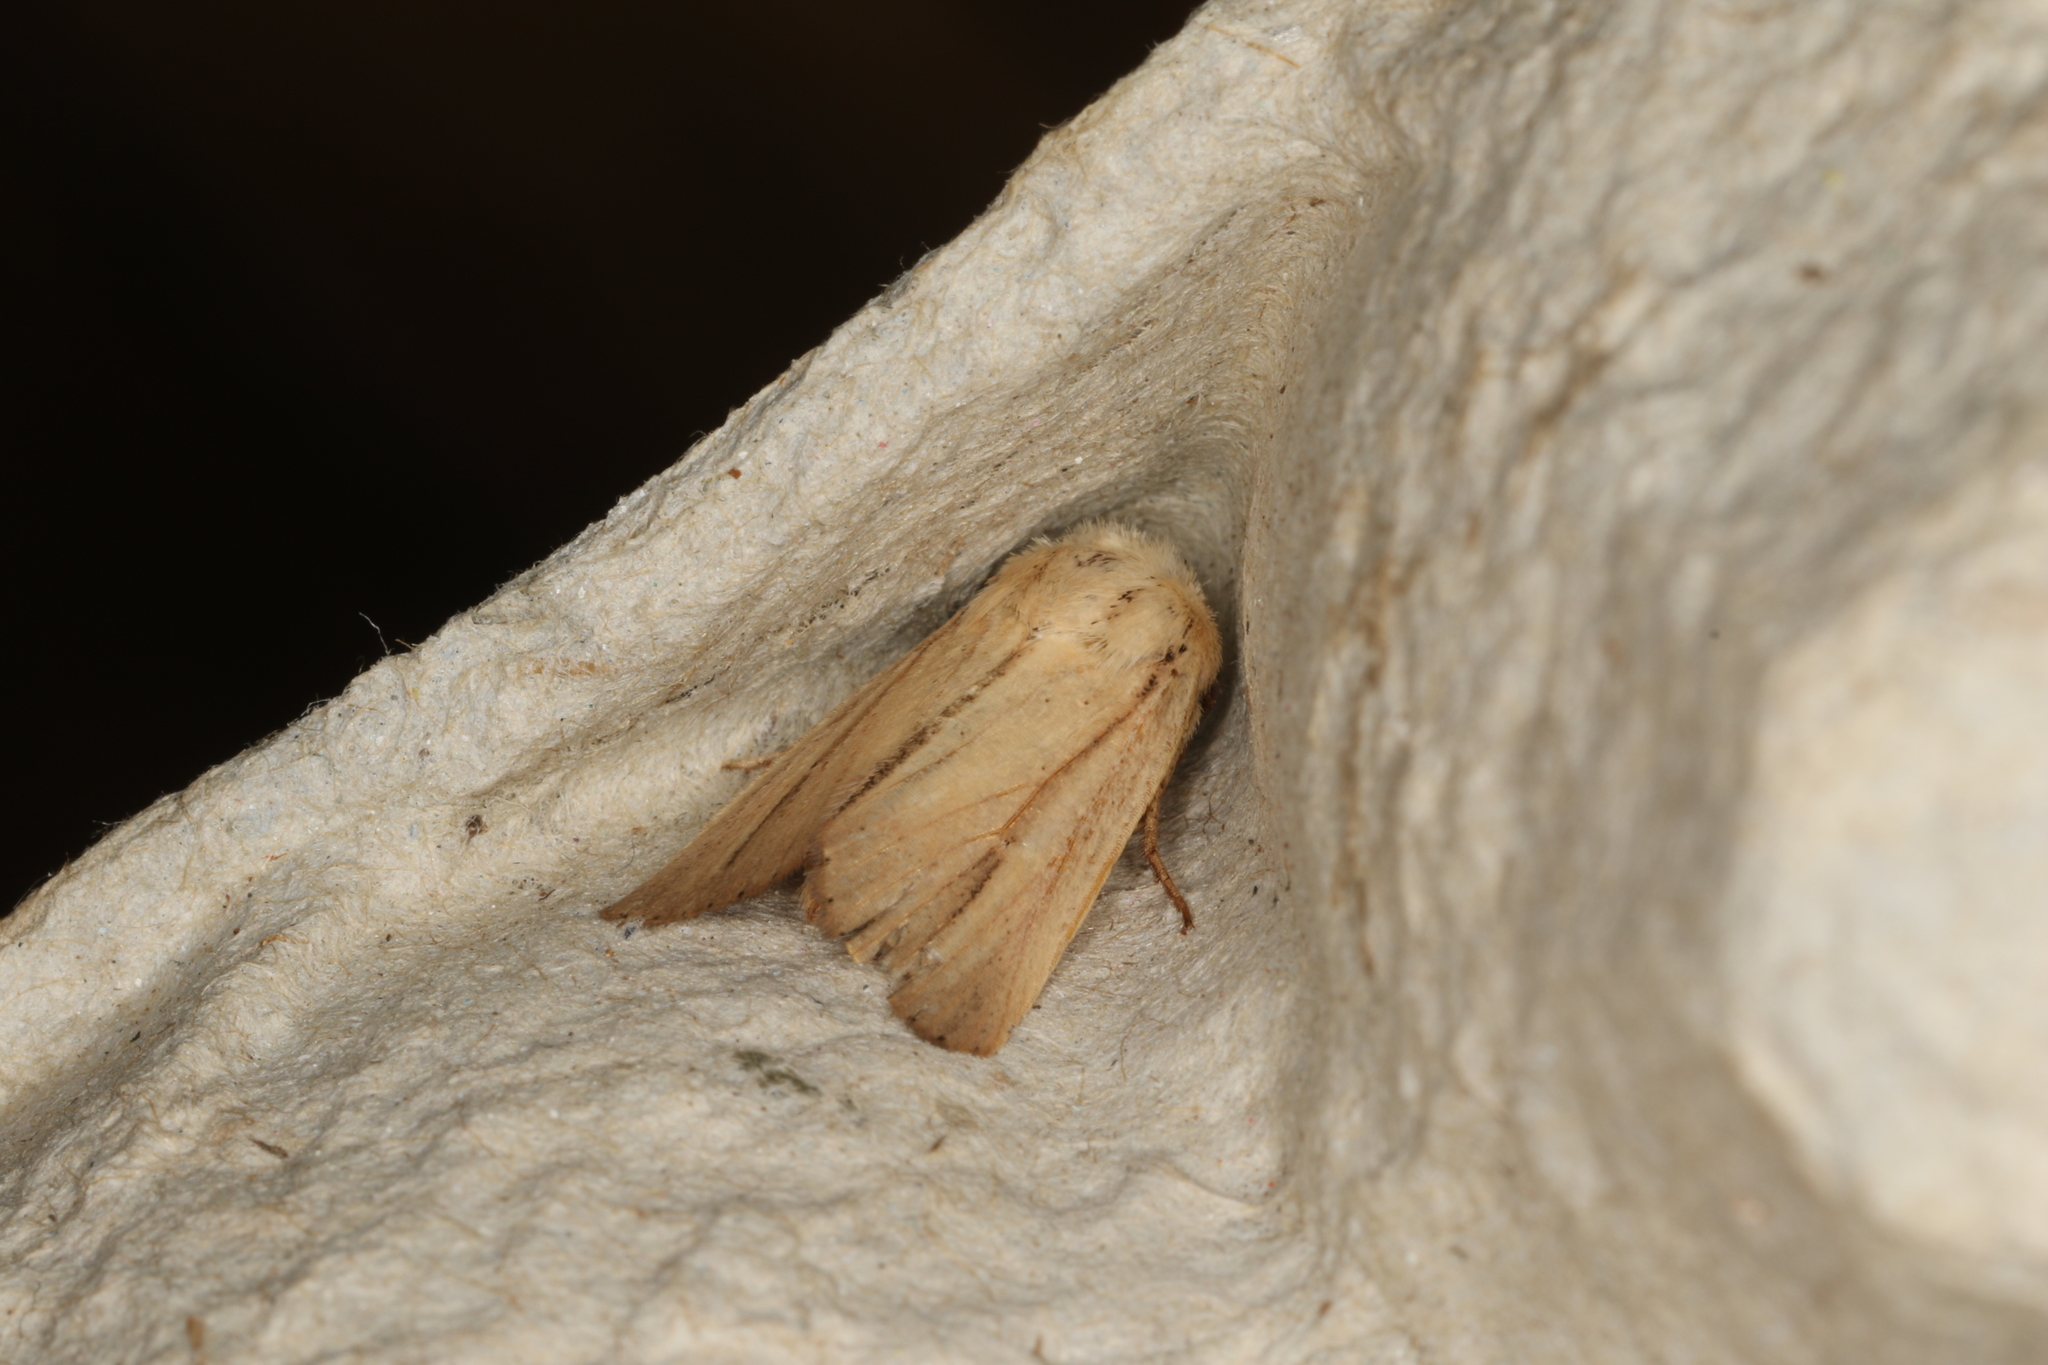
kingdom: Animalia
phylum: Arthropoda
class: Insecta
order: Lepidoptera
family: Noctuidae
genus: Leucania
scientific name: Leucania diatrecta
